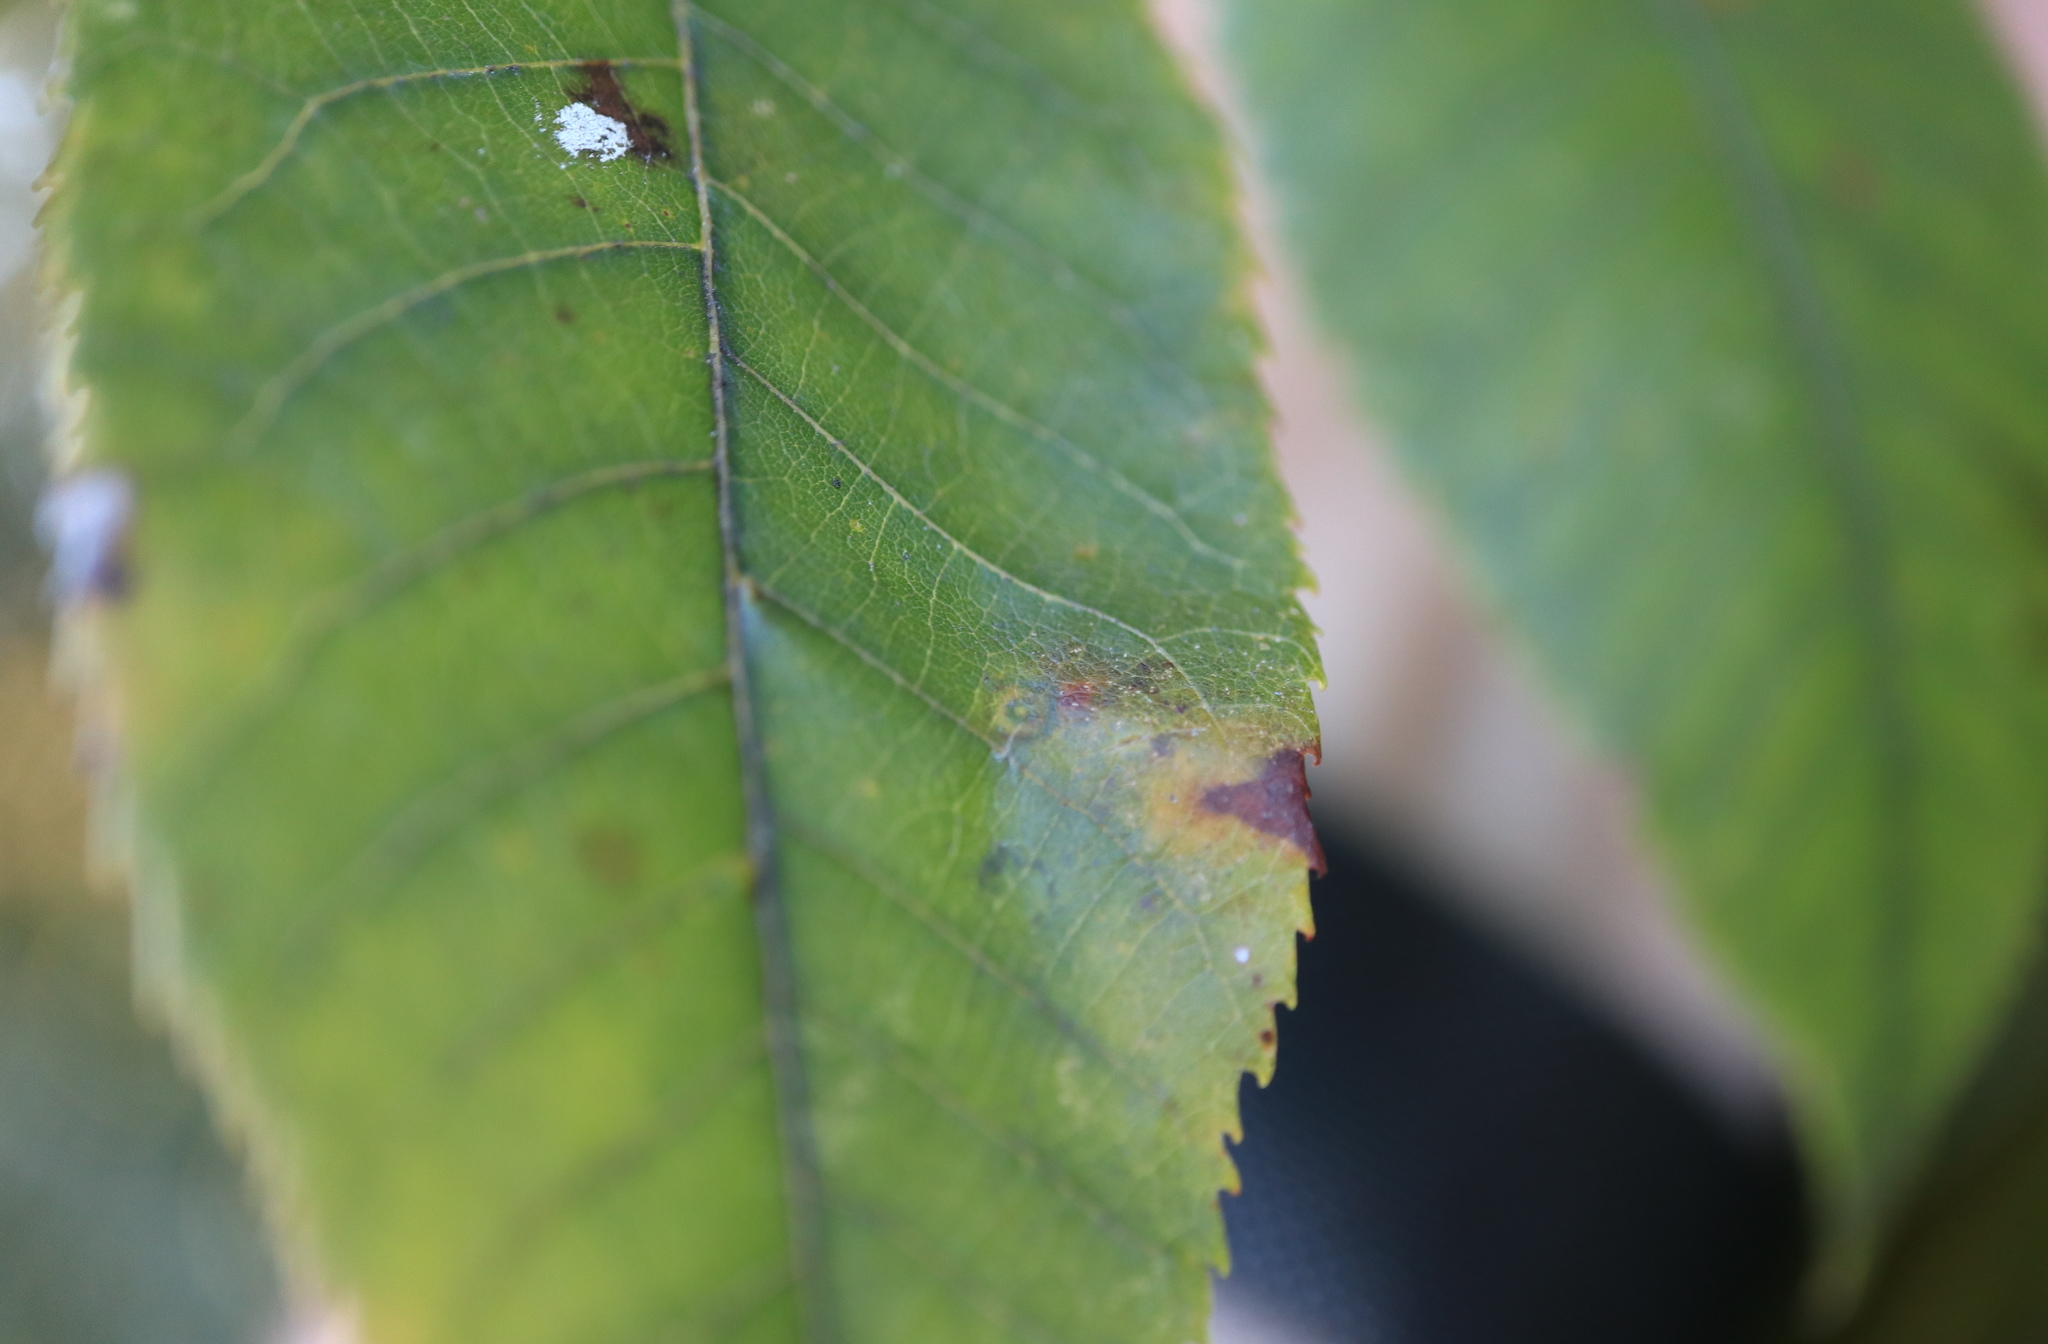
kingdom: Animalia
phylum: Arthropoda
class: Insecta
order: Diptera
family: Cecidomyiidae
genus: Caryomyia
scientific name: Caryomyia tubicola
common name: Hickory bullet gall midge
